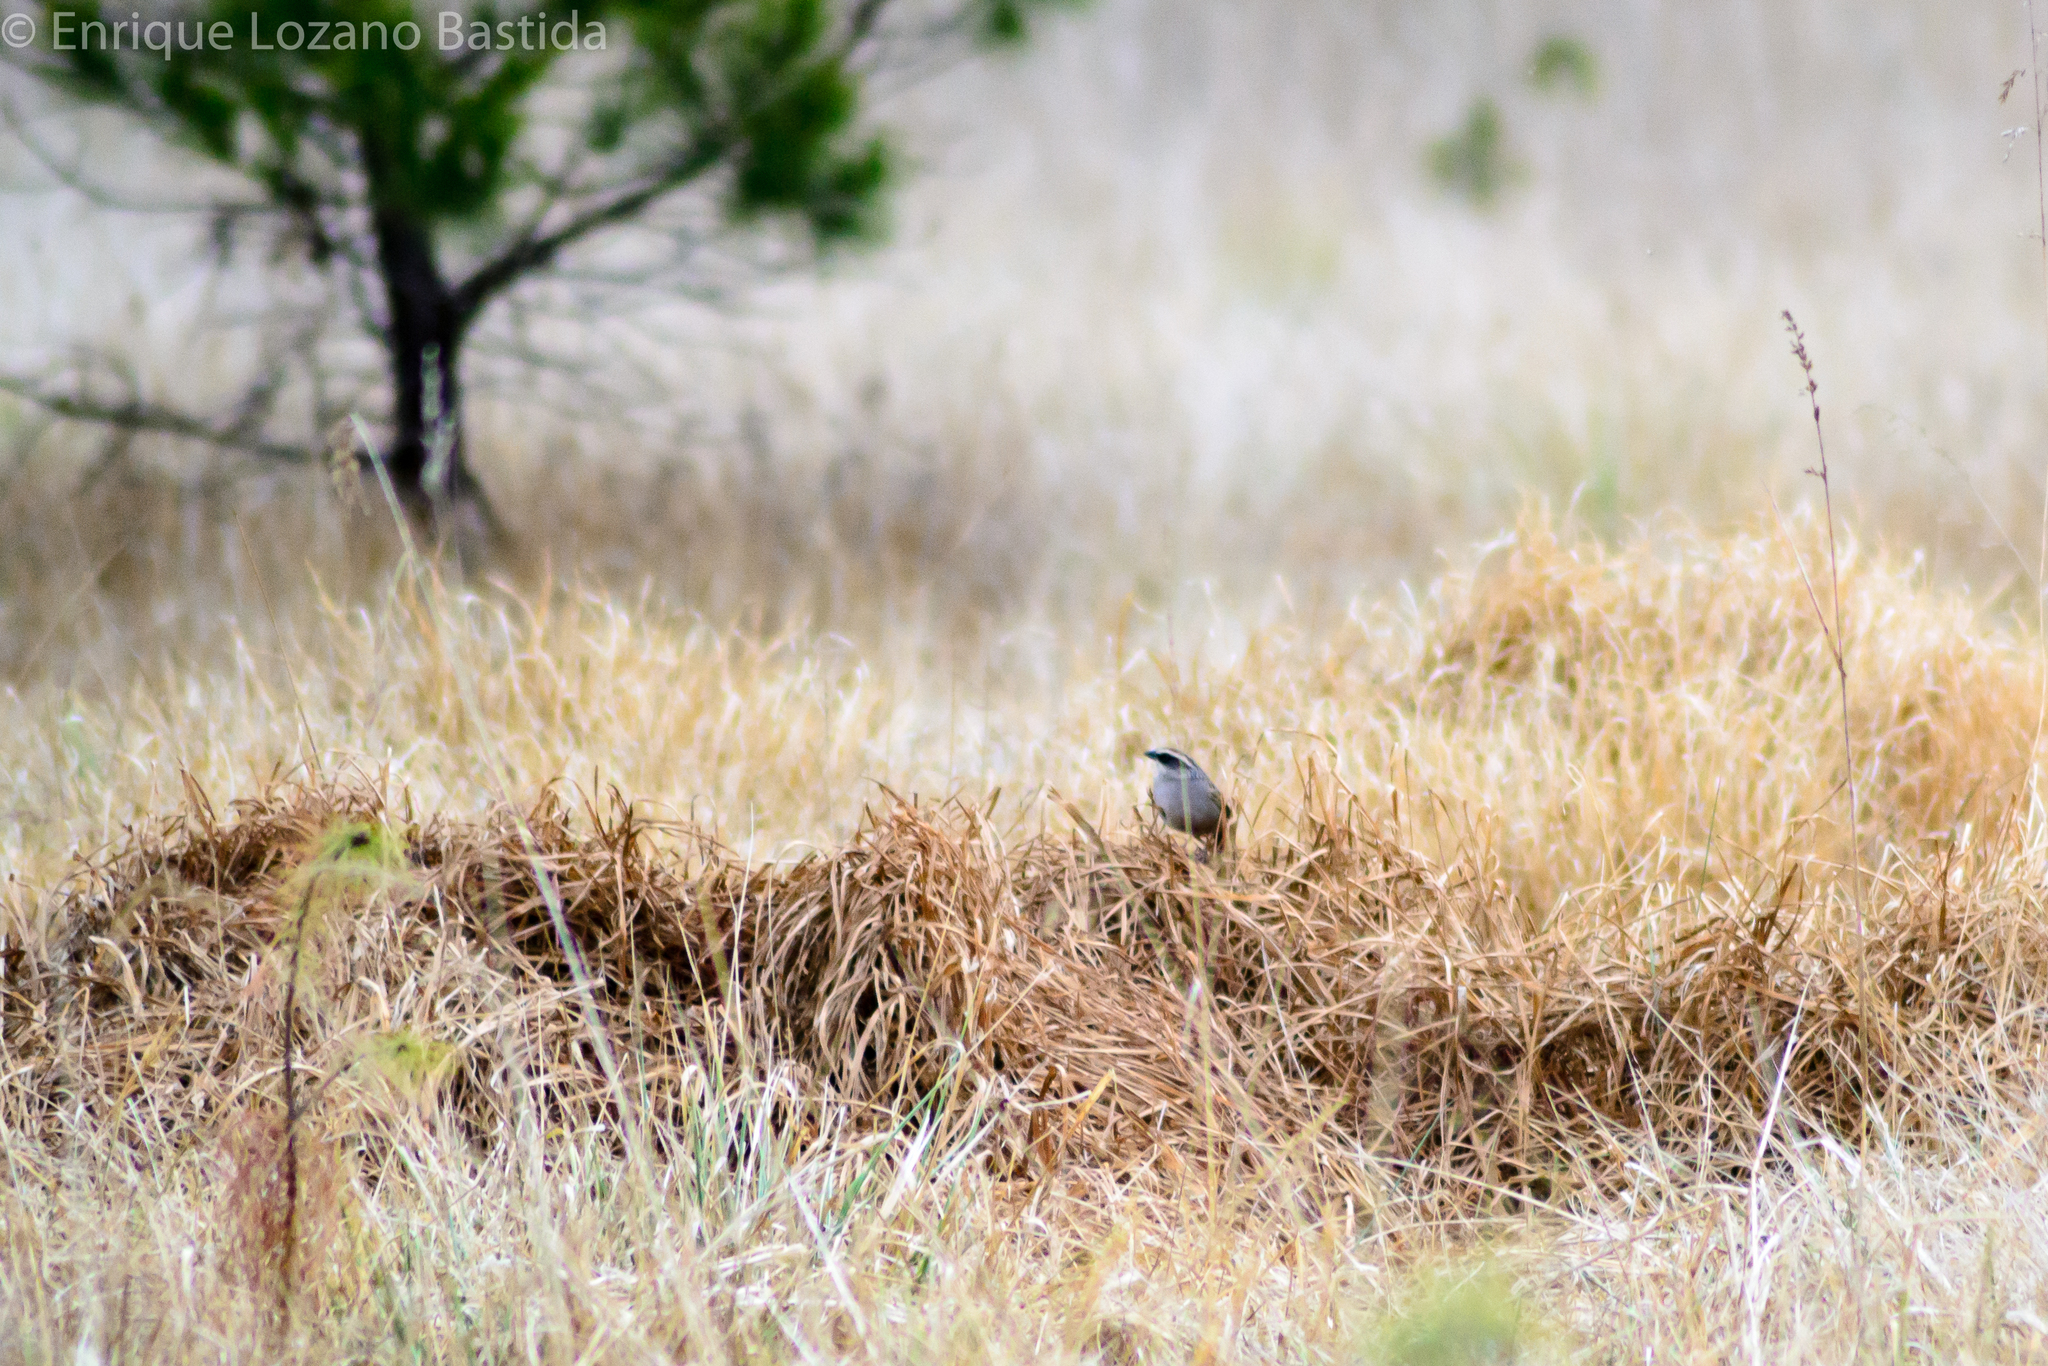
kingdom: Animalia
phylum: Chordata
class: Aves
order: Passeriformes
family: Passerellidae
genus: Oriturus
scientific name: Oriturus superciliosus
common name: Striped sparrow
